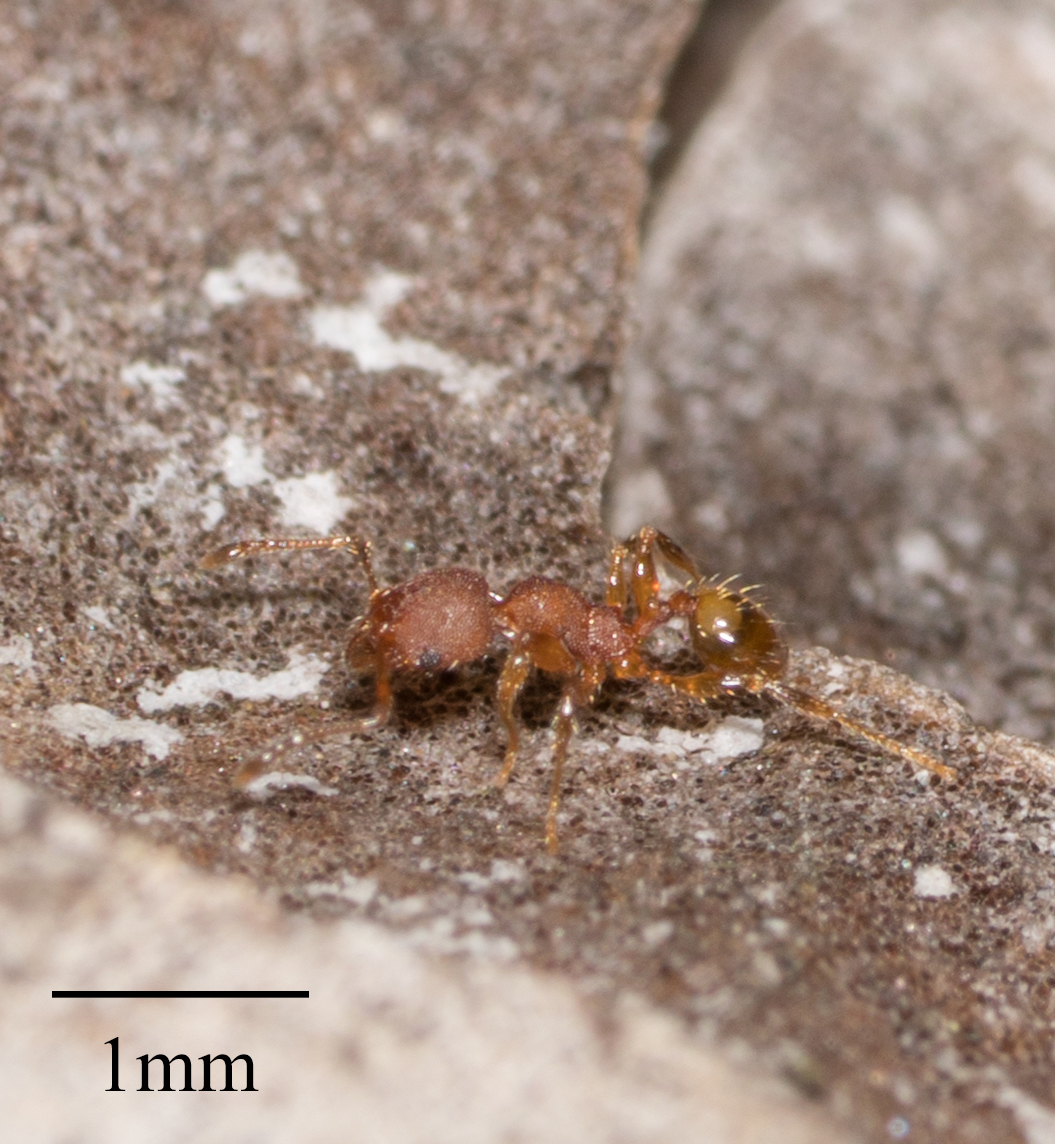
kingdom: Animalia
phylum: Arthropoda
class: Insecta
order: Hymenoptera
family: Formicidae
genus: Pheidole
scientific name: Pheidole navigans
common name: Navigating big-headed ant
